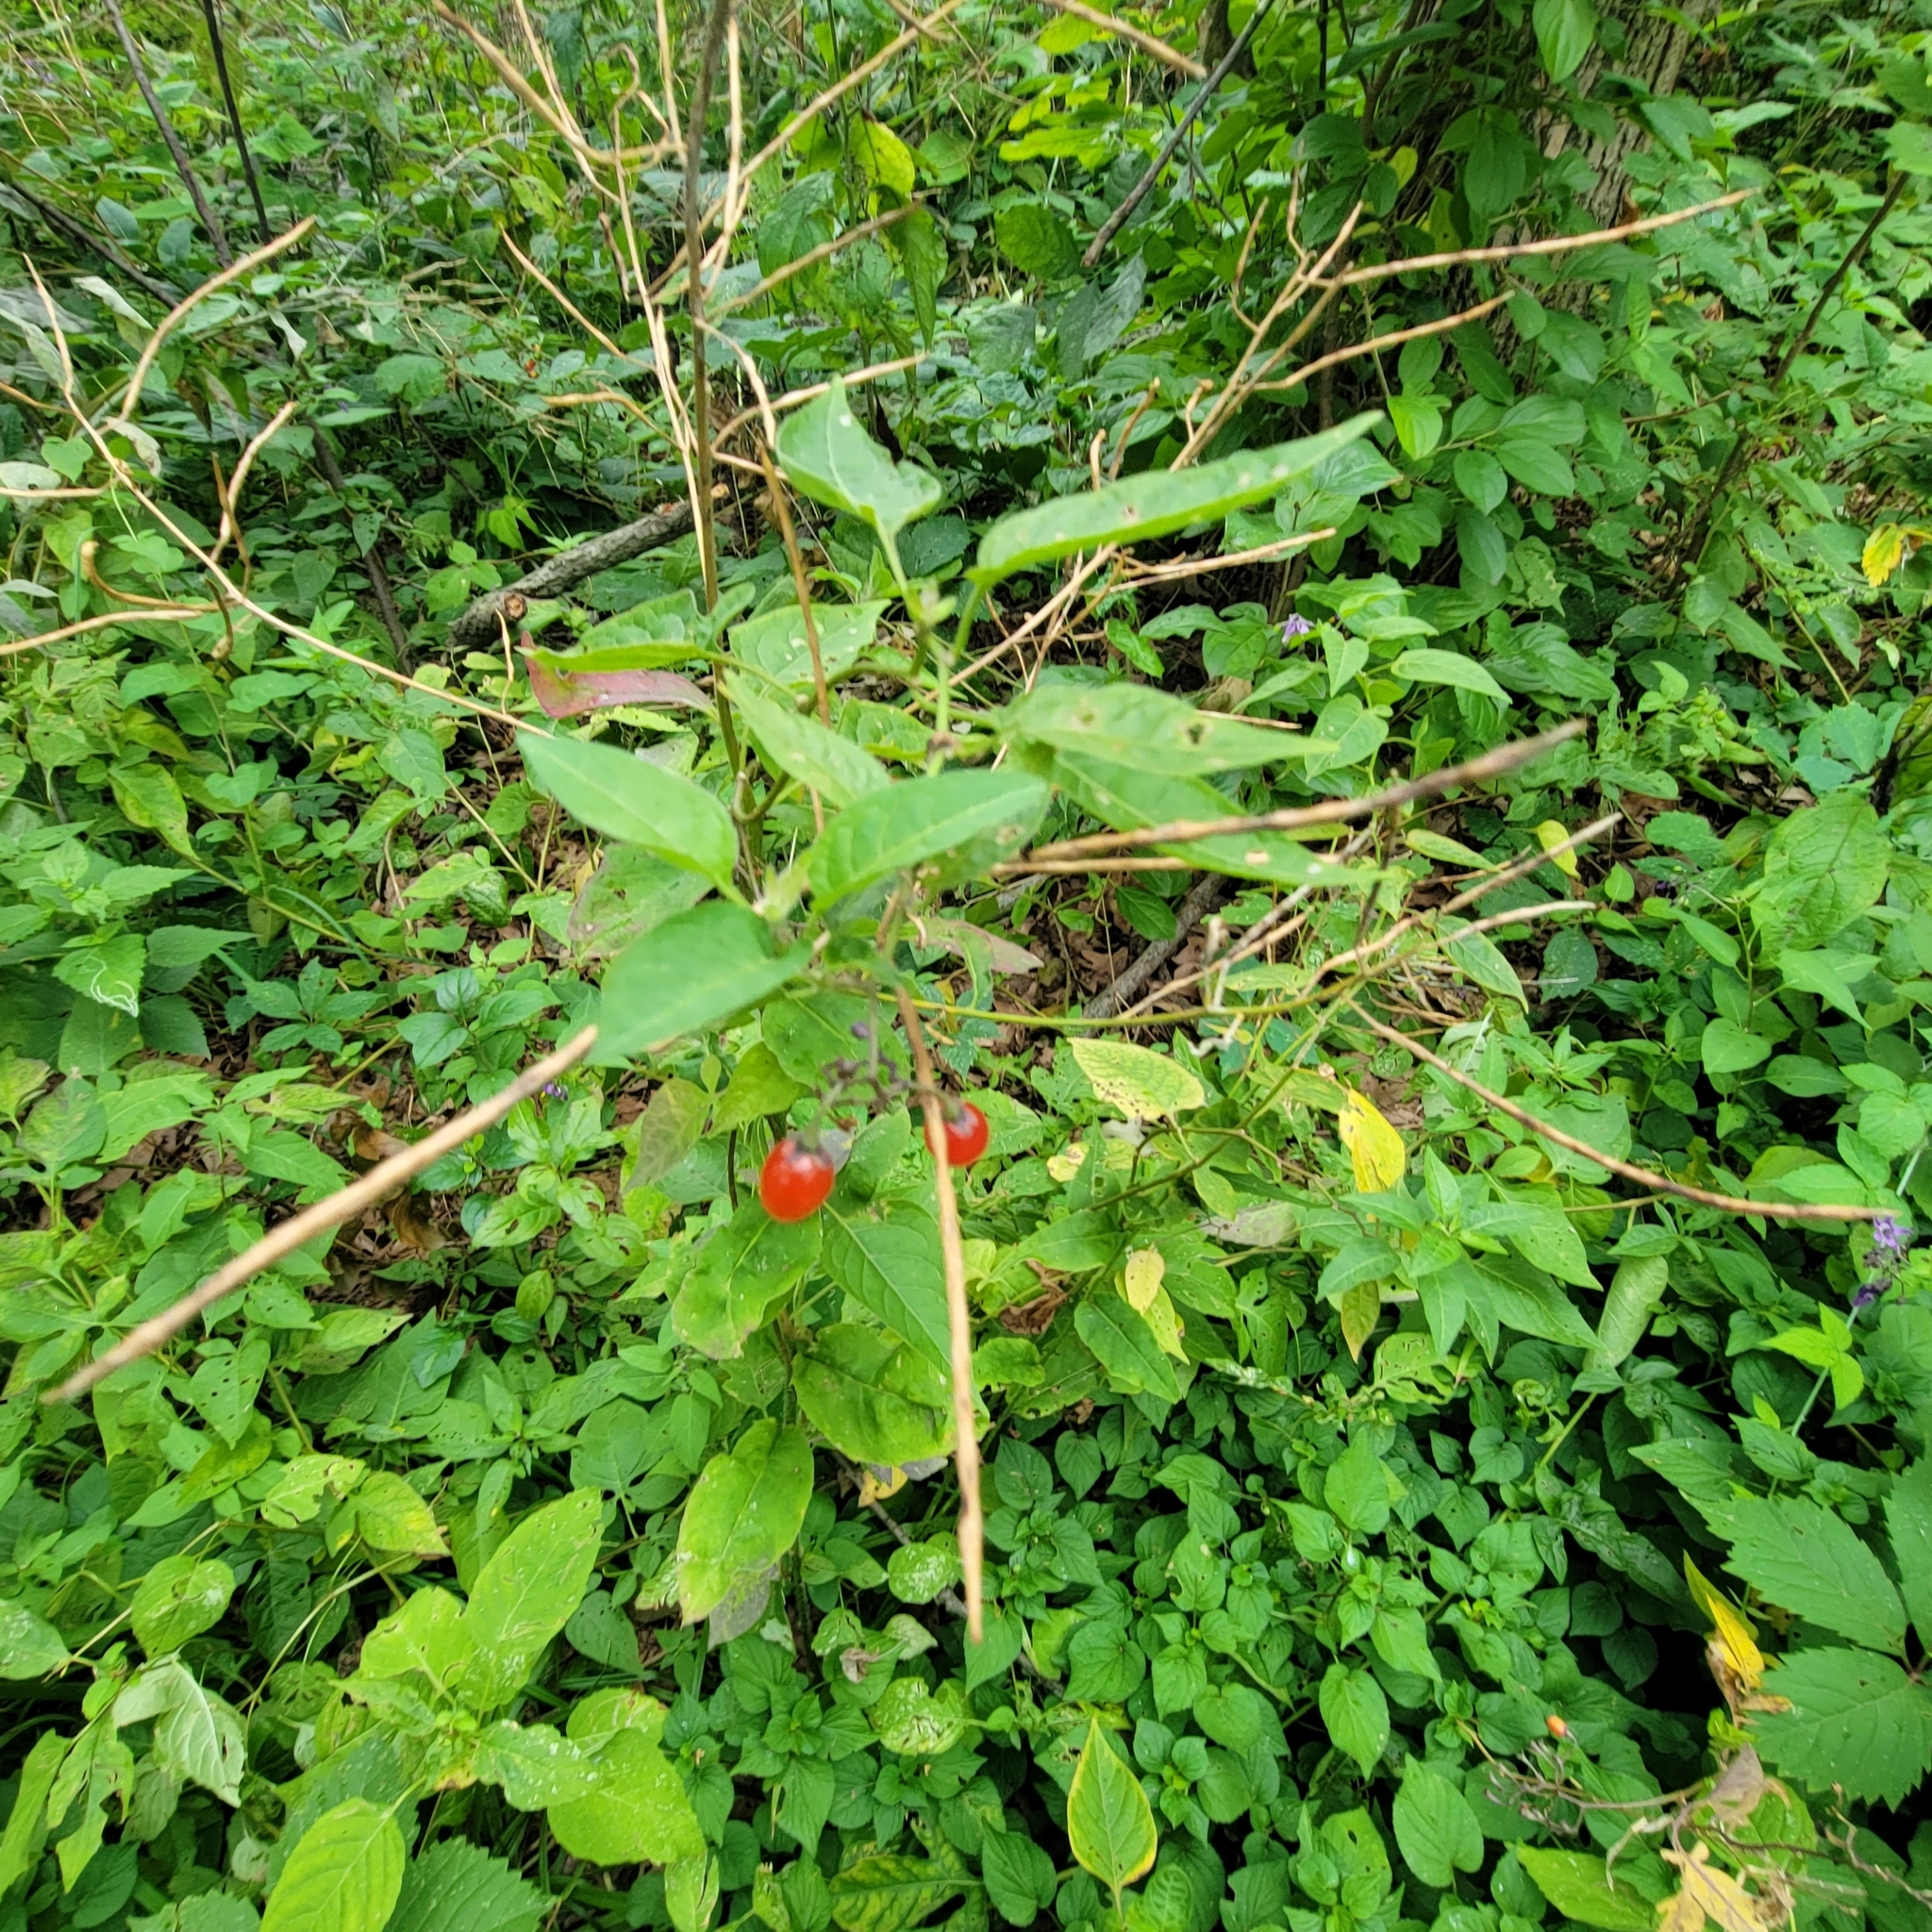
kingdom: Plantae
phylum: Tracheophyta
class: Magnoliopsida
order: Solanales
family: Solanaceae
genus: Solanum
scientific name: Solanum dulcamara
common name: Climbing nightshade
